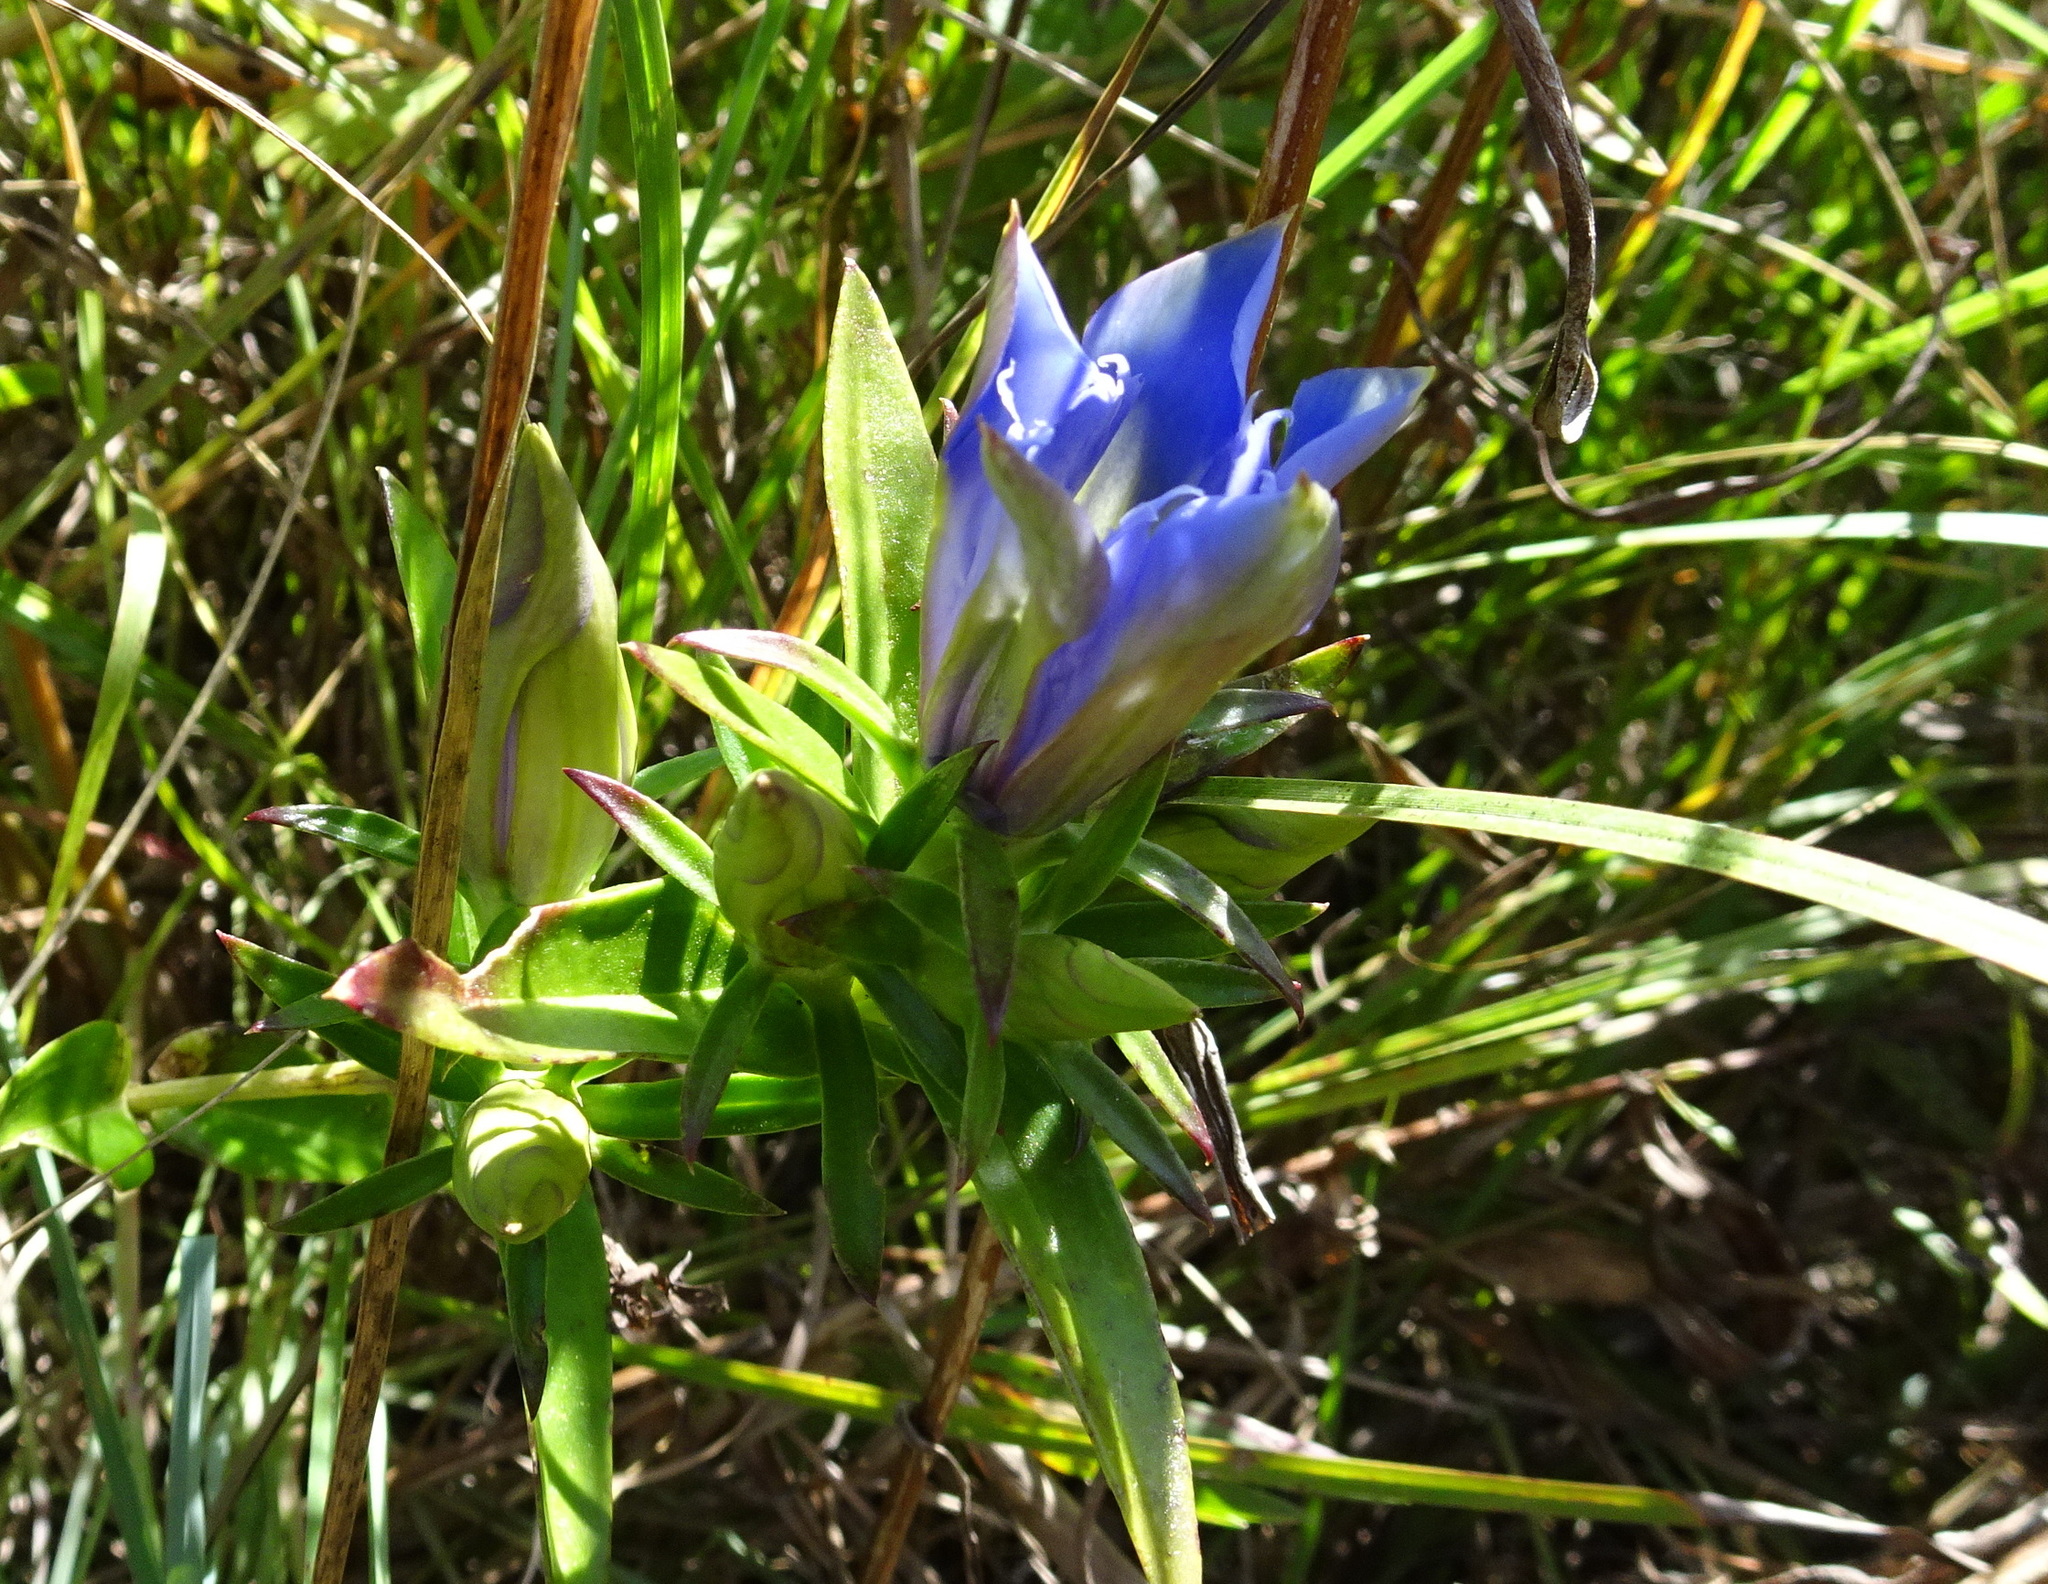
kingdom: Plantae
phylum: Tracheophyta
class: Magnoliopsida
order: Gentianales
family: Gentianaceae
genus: Gentiana
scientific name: Gentiana puberulenta
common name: Downy gentian
